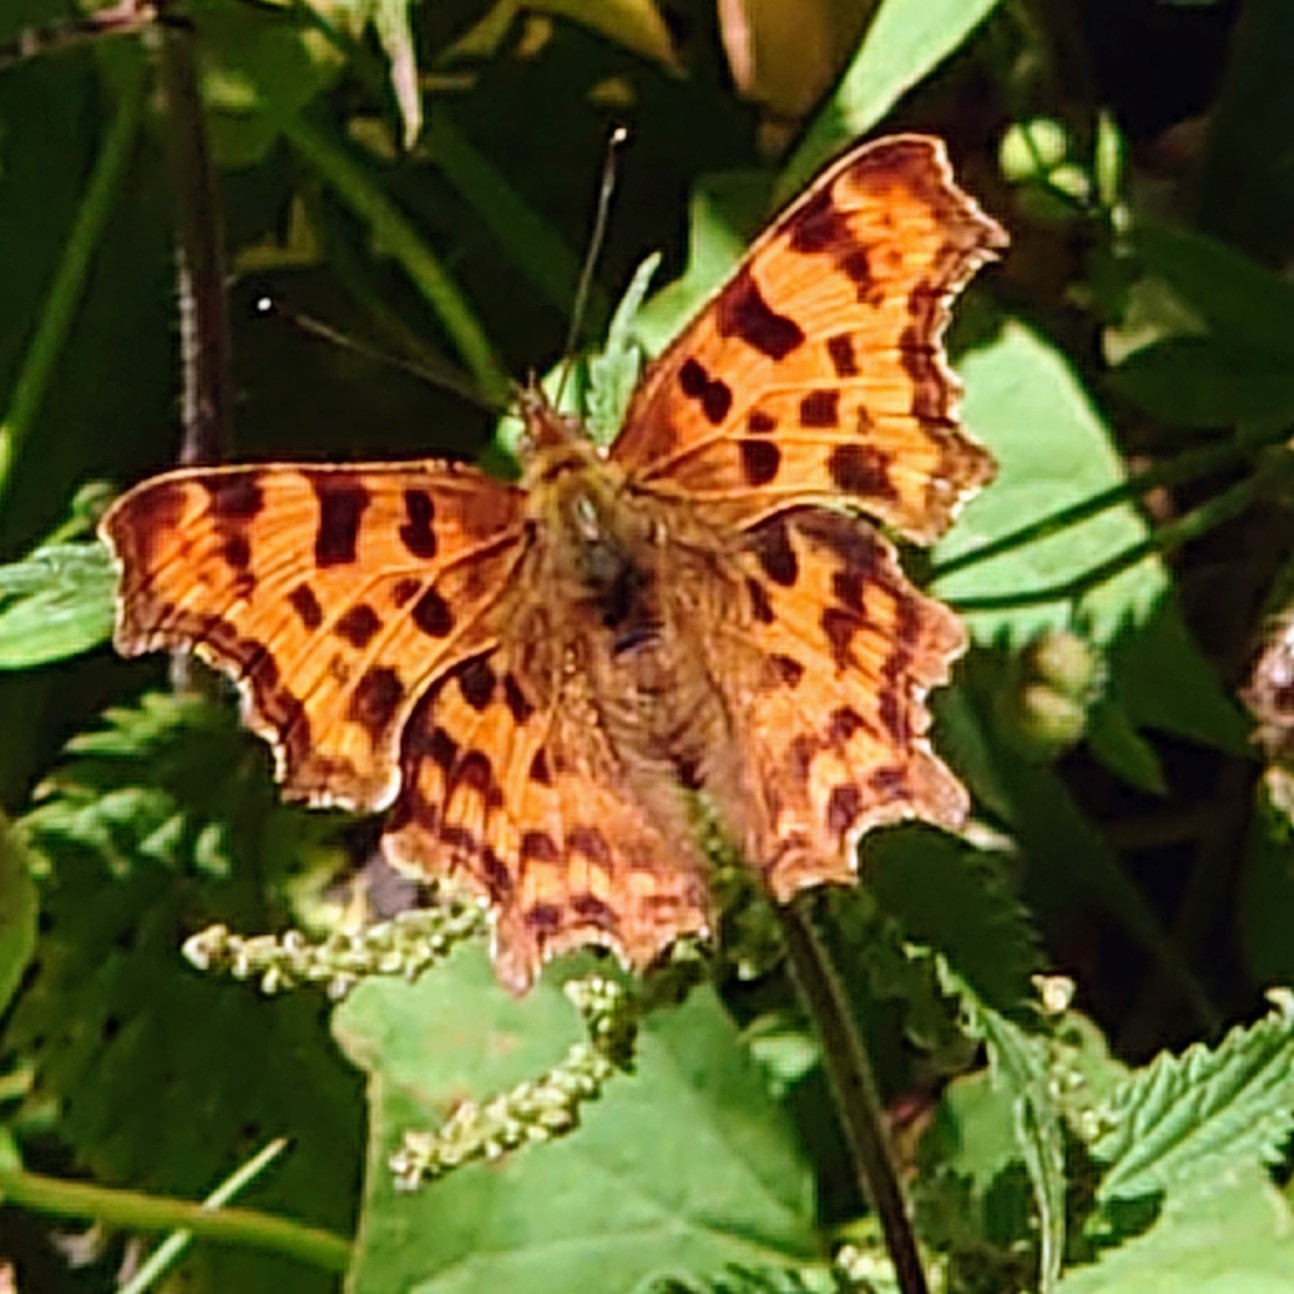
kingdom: Animalia
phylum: Arthropoda
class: Insecta
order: Lepidoptera
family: Nymphalidae
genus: Polygonia
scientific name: Polygonia c-album
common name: Comma
